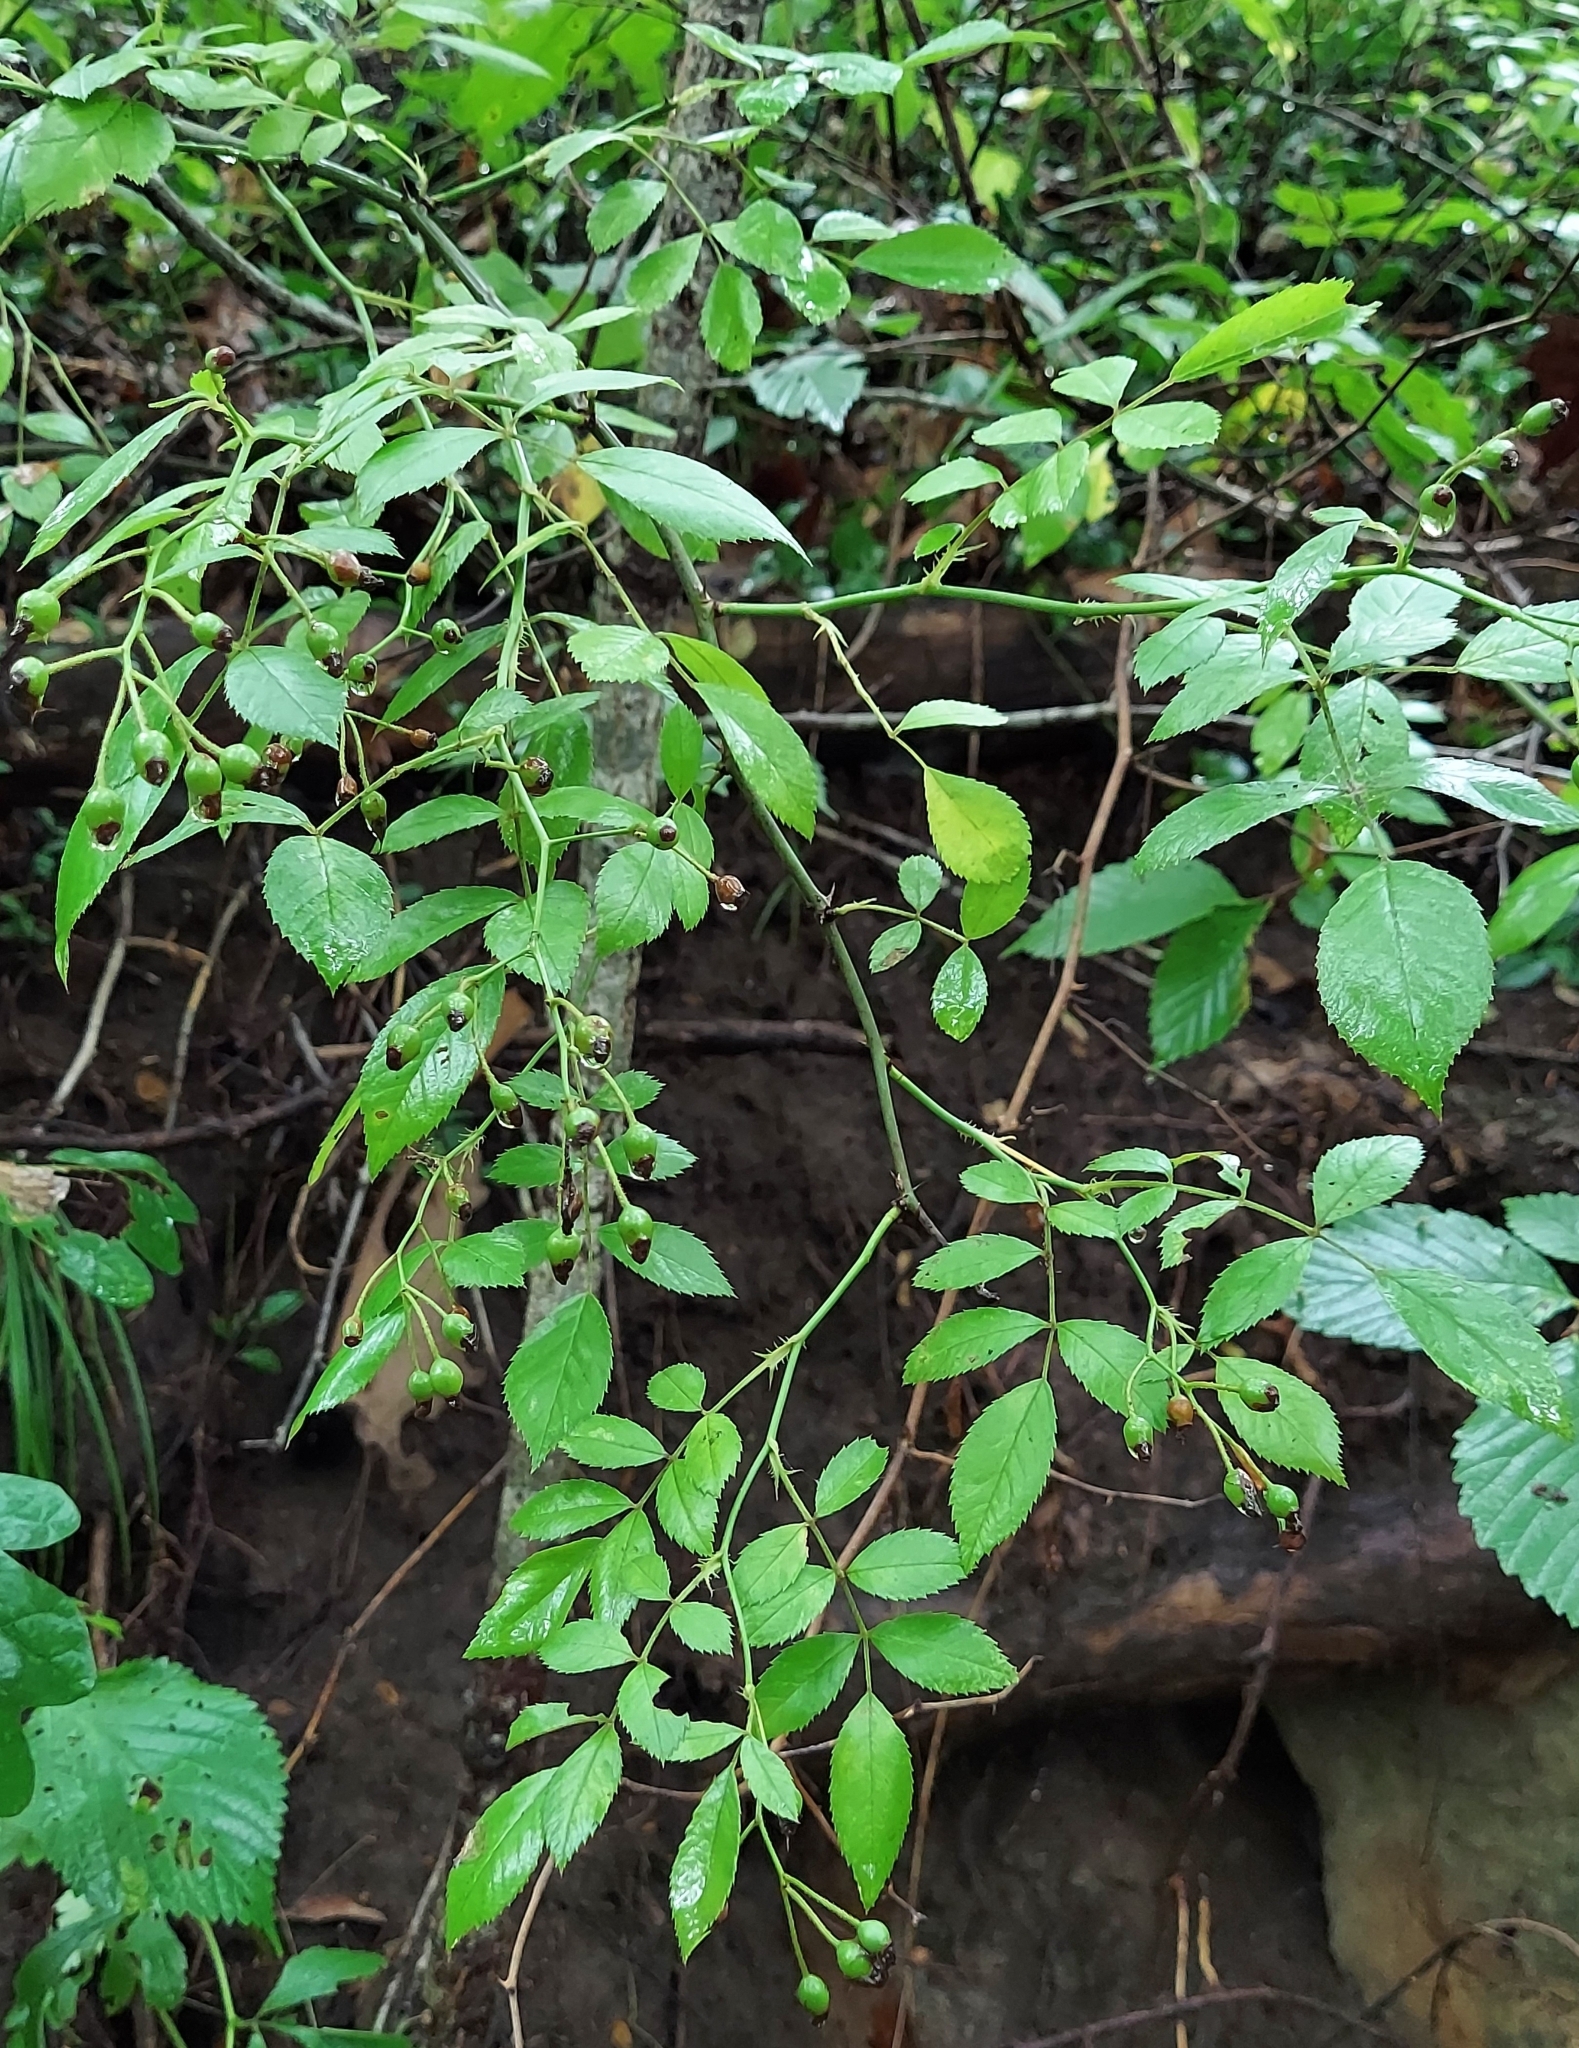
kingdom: Plantae
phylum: Tracheophyta
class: Magnoliopsida
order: Rosales
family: Rosaceae
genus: Rosa
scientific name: Rosa multiflora
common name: Multiflora rose
